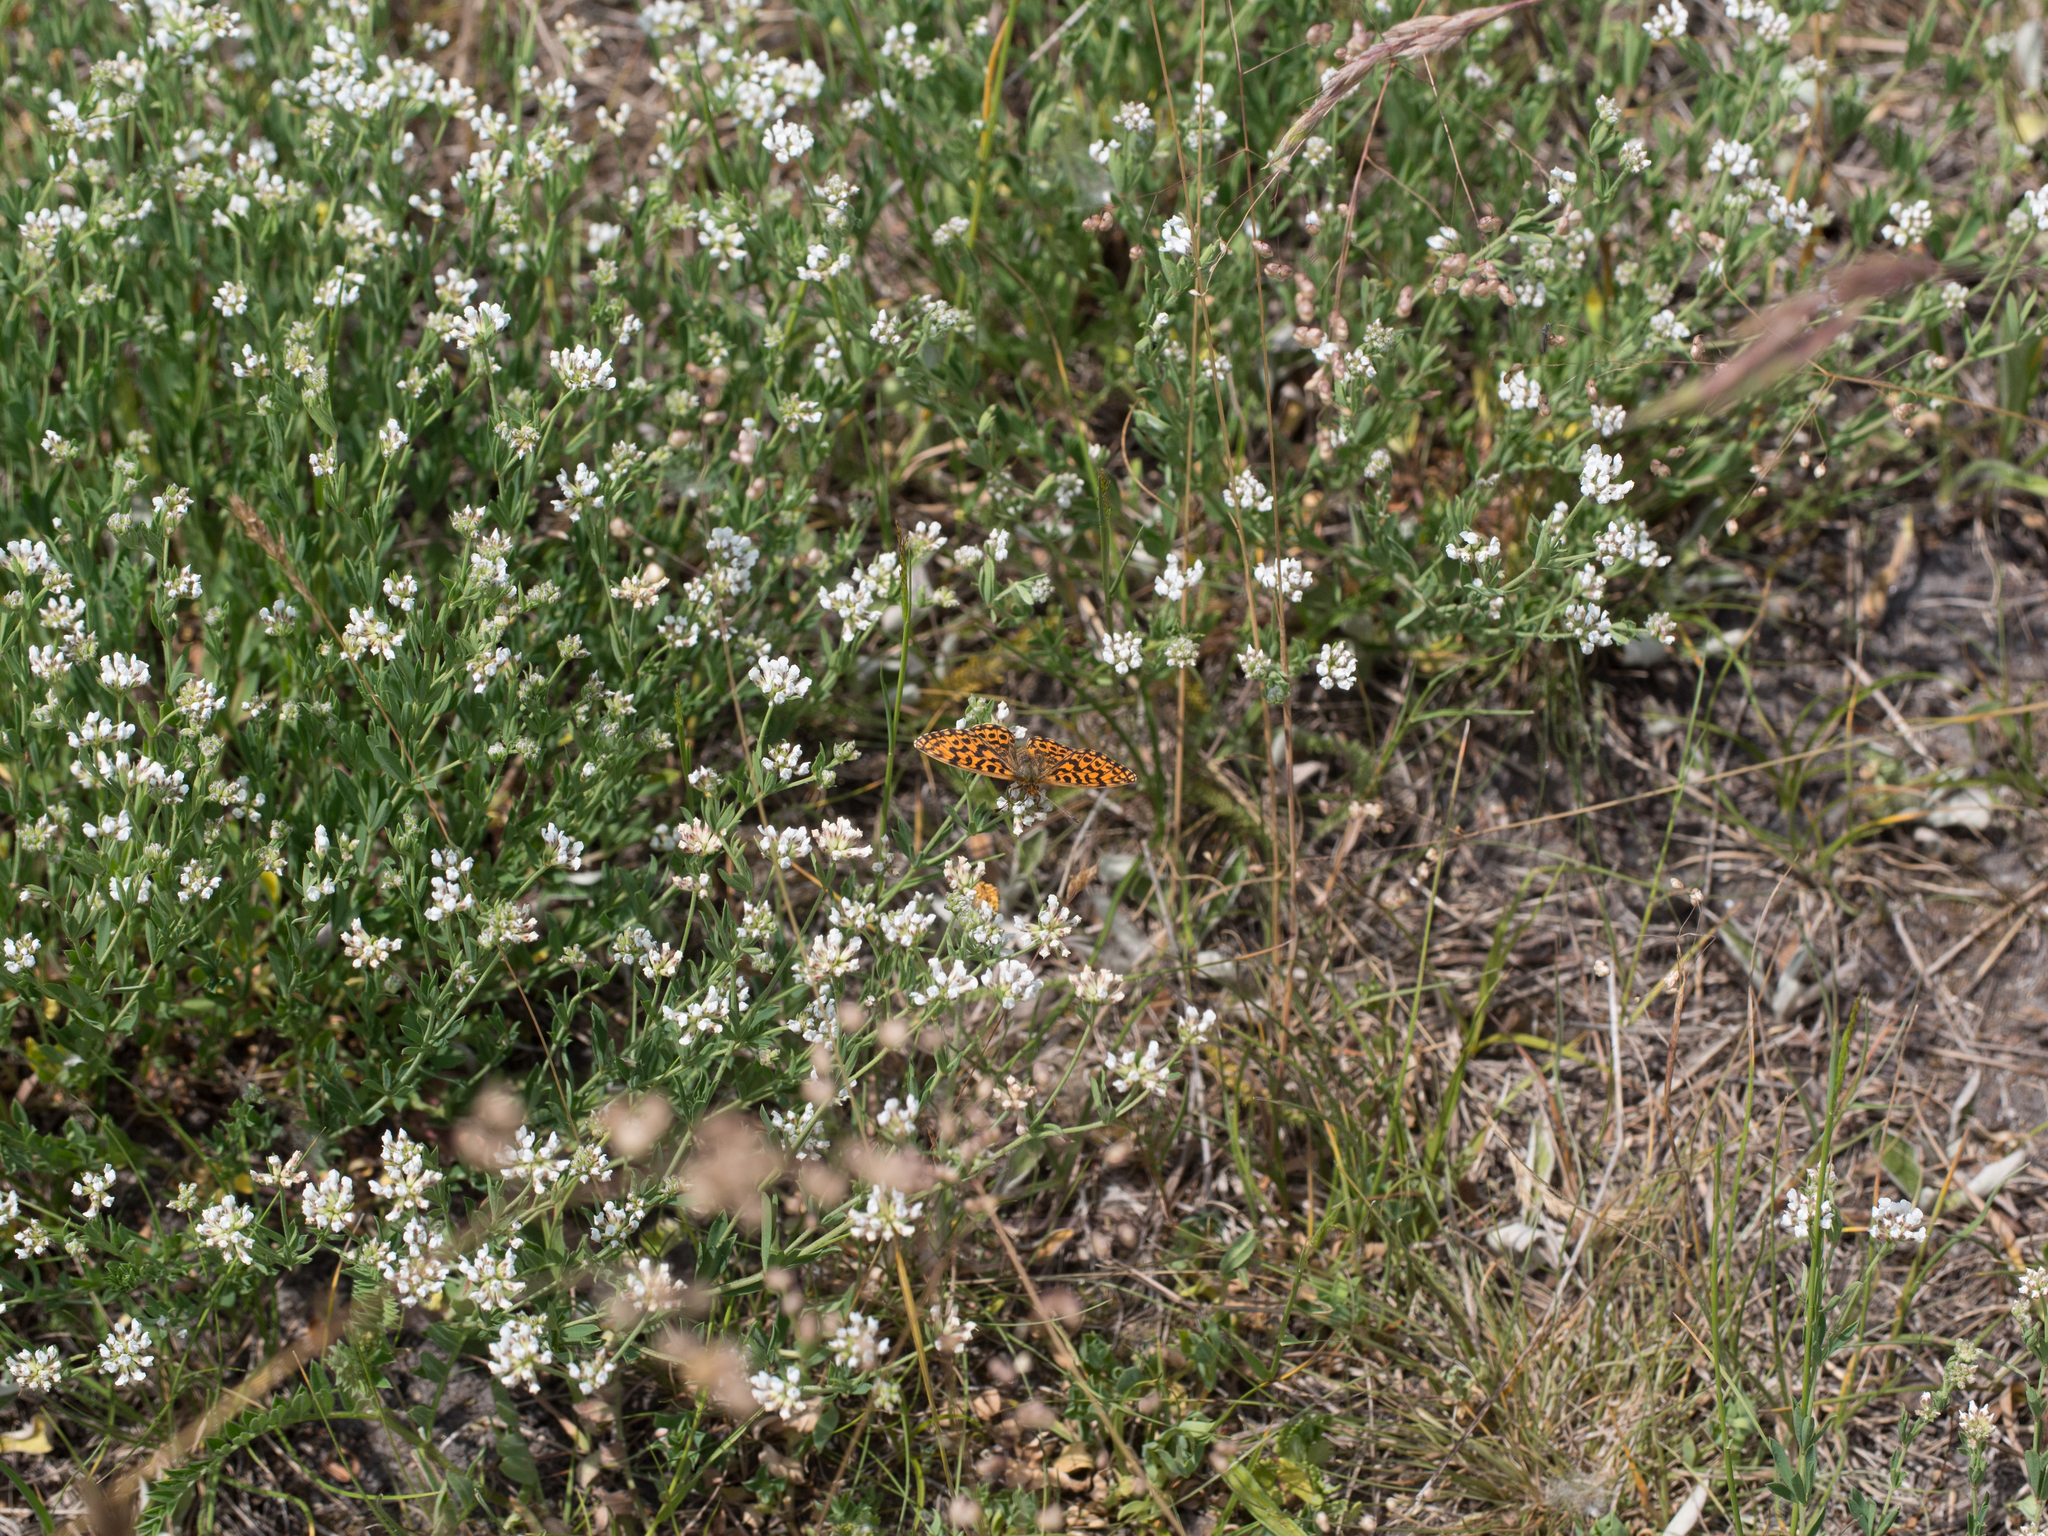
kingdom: Plantae
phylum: Tracheophyta
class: Magnoliopsida
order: Fabales
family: Fabaceae
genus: Lotus
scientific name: Lotus germanicus
